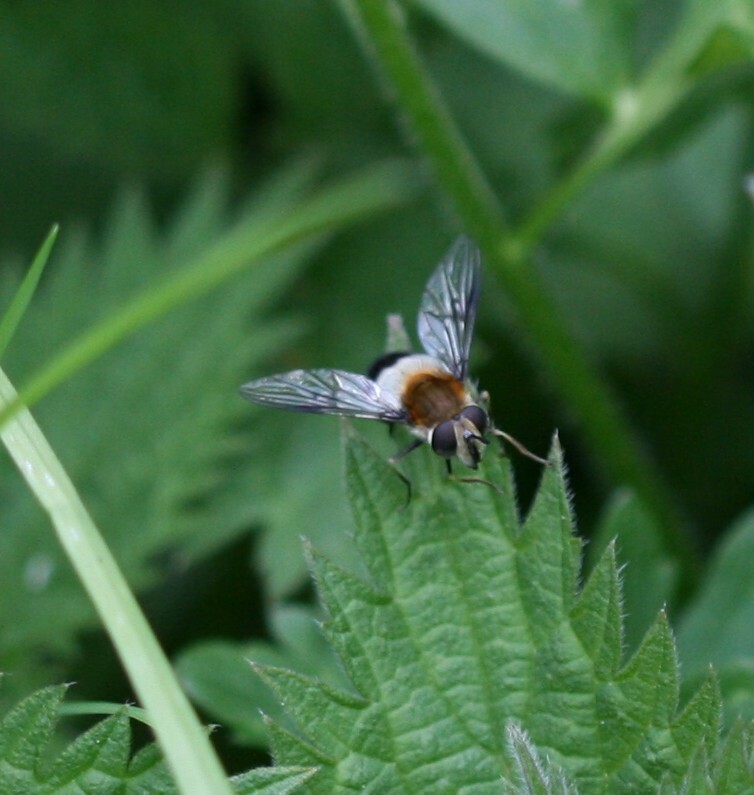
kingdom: Animalia
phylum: Arthropoda
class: Insecta
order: Diptera
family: Syrphidae
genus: Leucozona
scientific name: Leucozona lucorum
